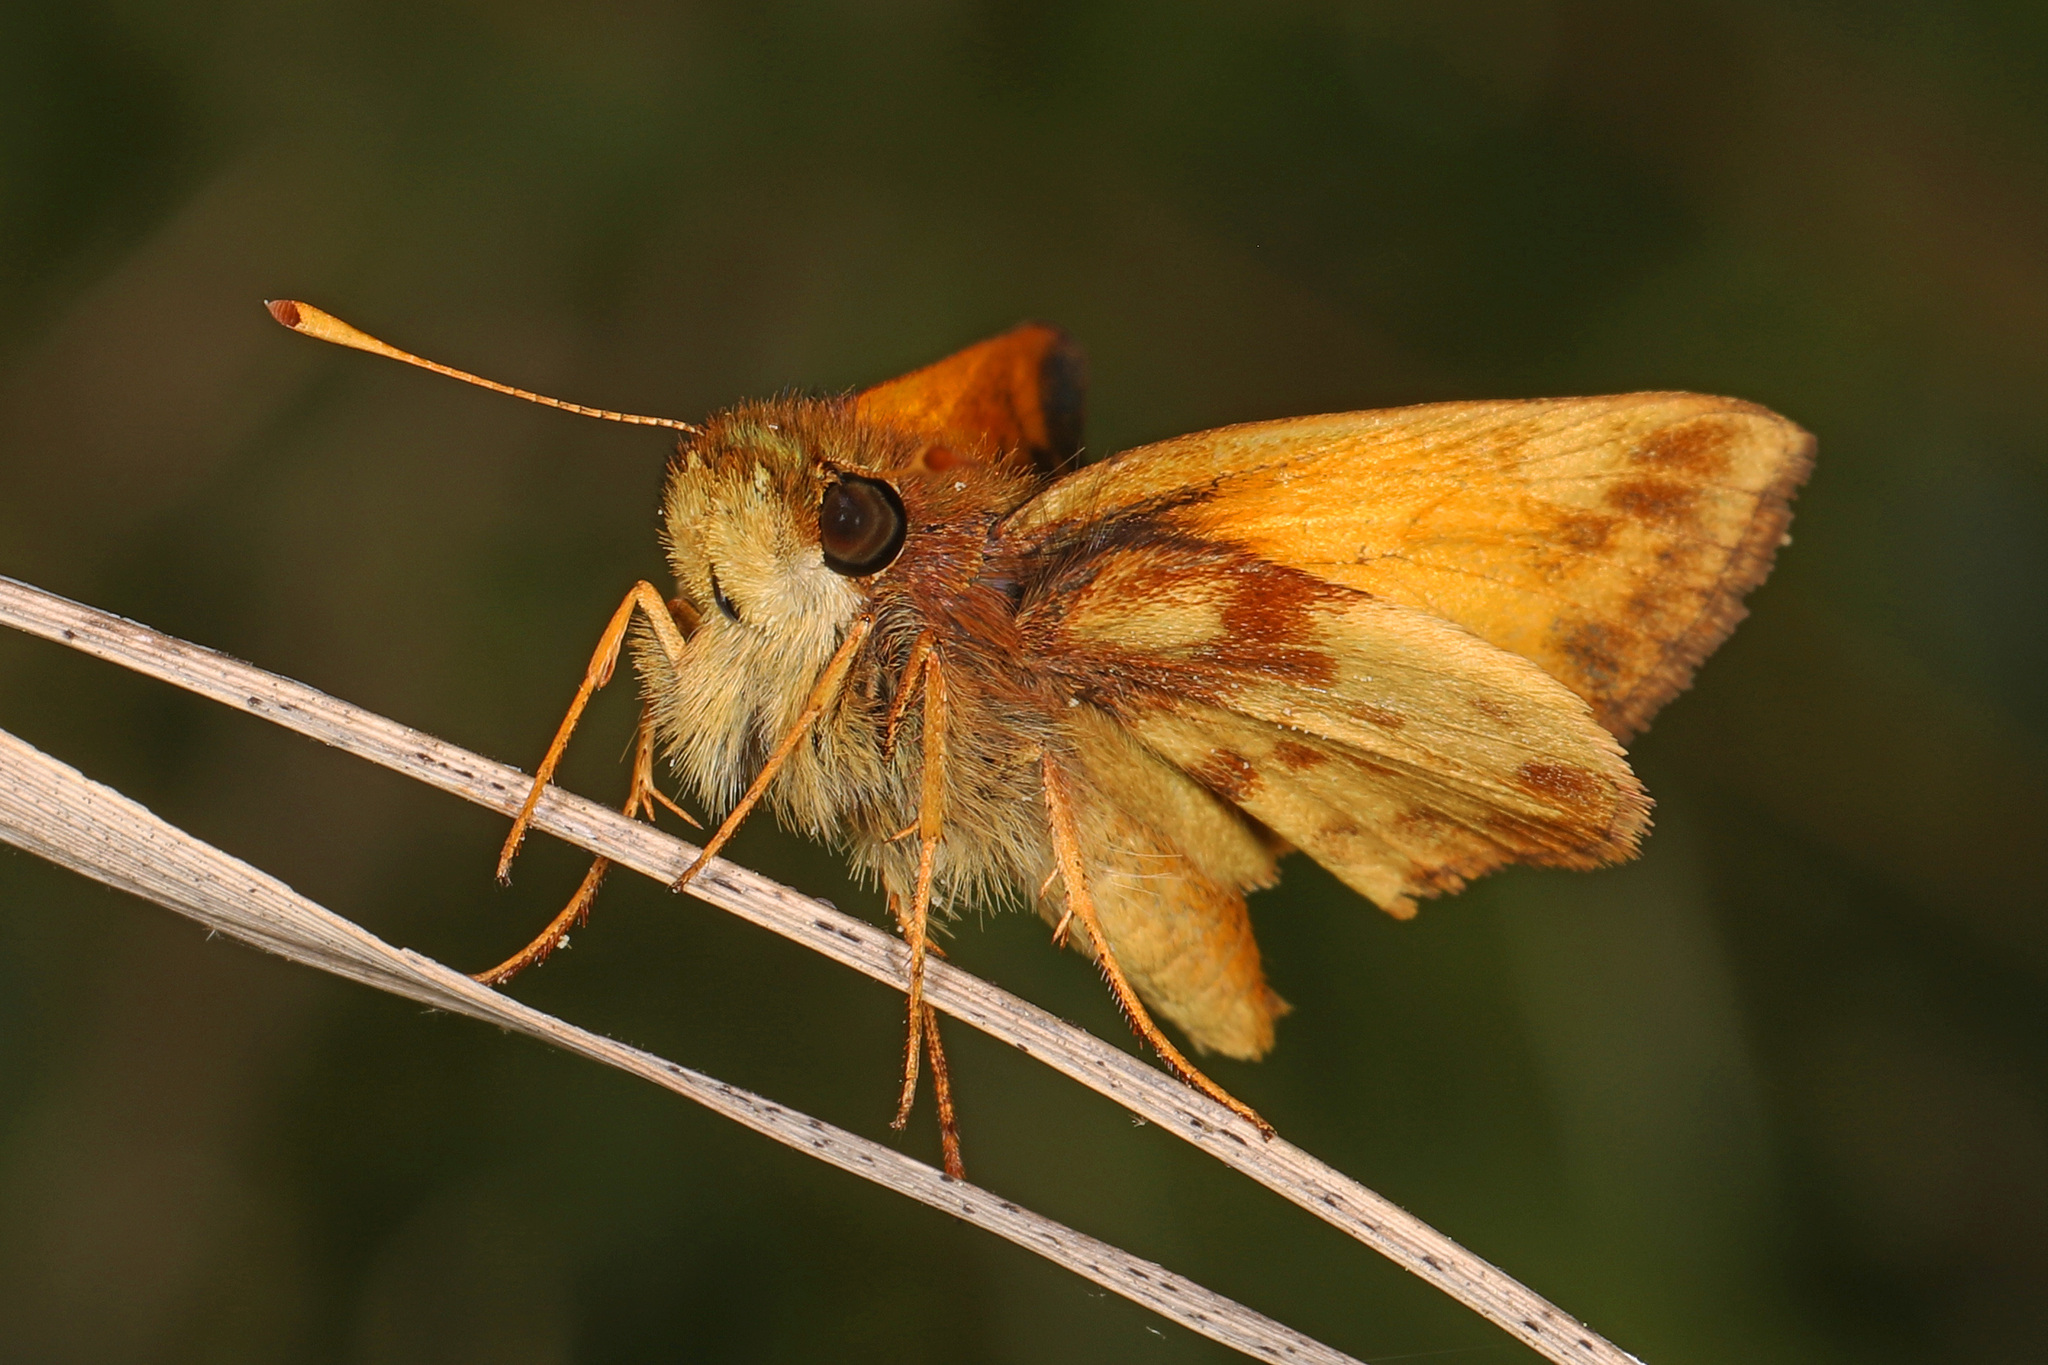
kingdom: Animalia
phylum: Arthropoda
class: Insecta
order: Lepidoptera
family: Hesperiidae
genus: Lon
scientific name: Lon zabulon
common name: Zabulon skipper
